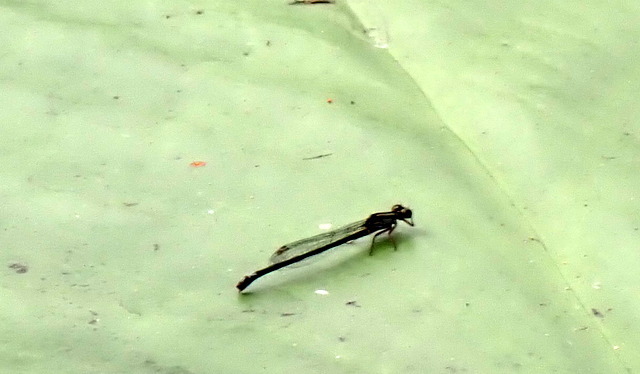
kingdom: Animalia
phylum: Arthropoda
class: Insecta
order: Odonata
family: Coenagrionidae
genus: Ischnura
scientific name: Ischnura kellicotti
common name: Lilypad forktail
